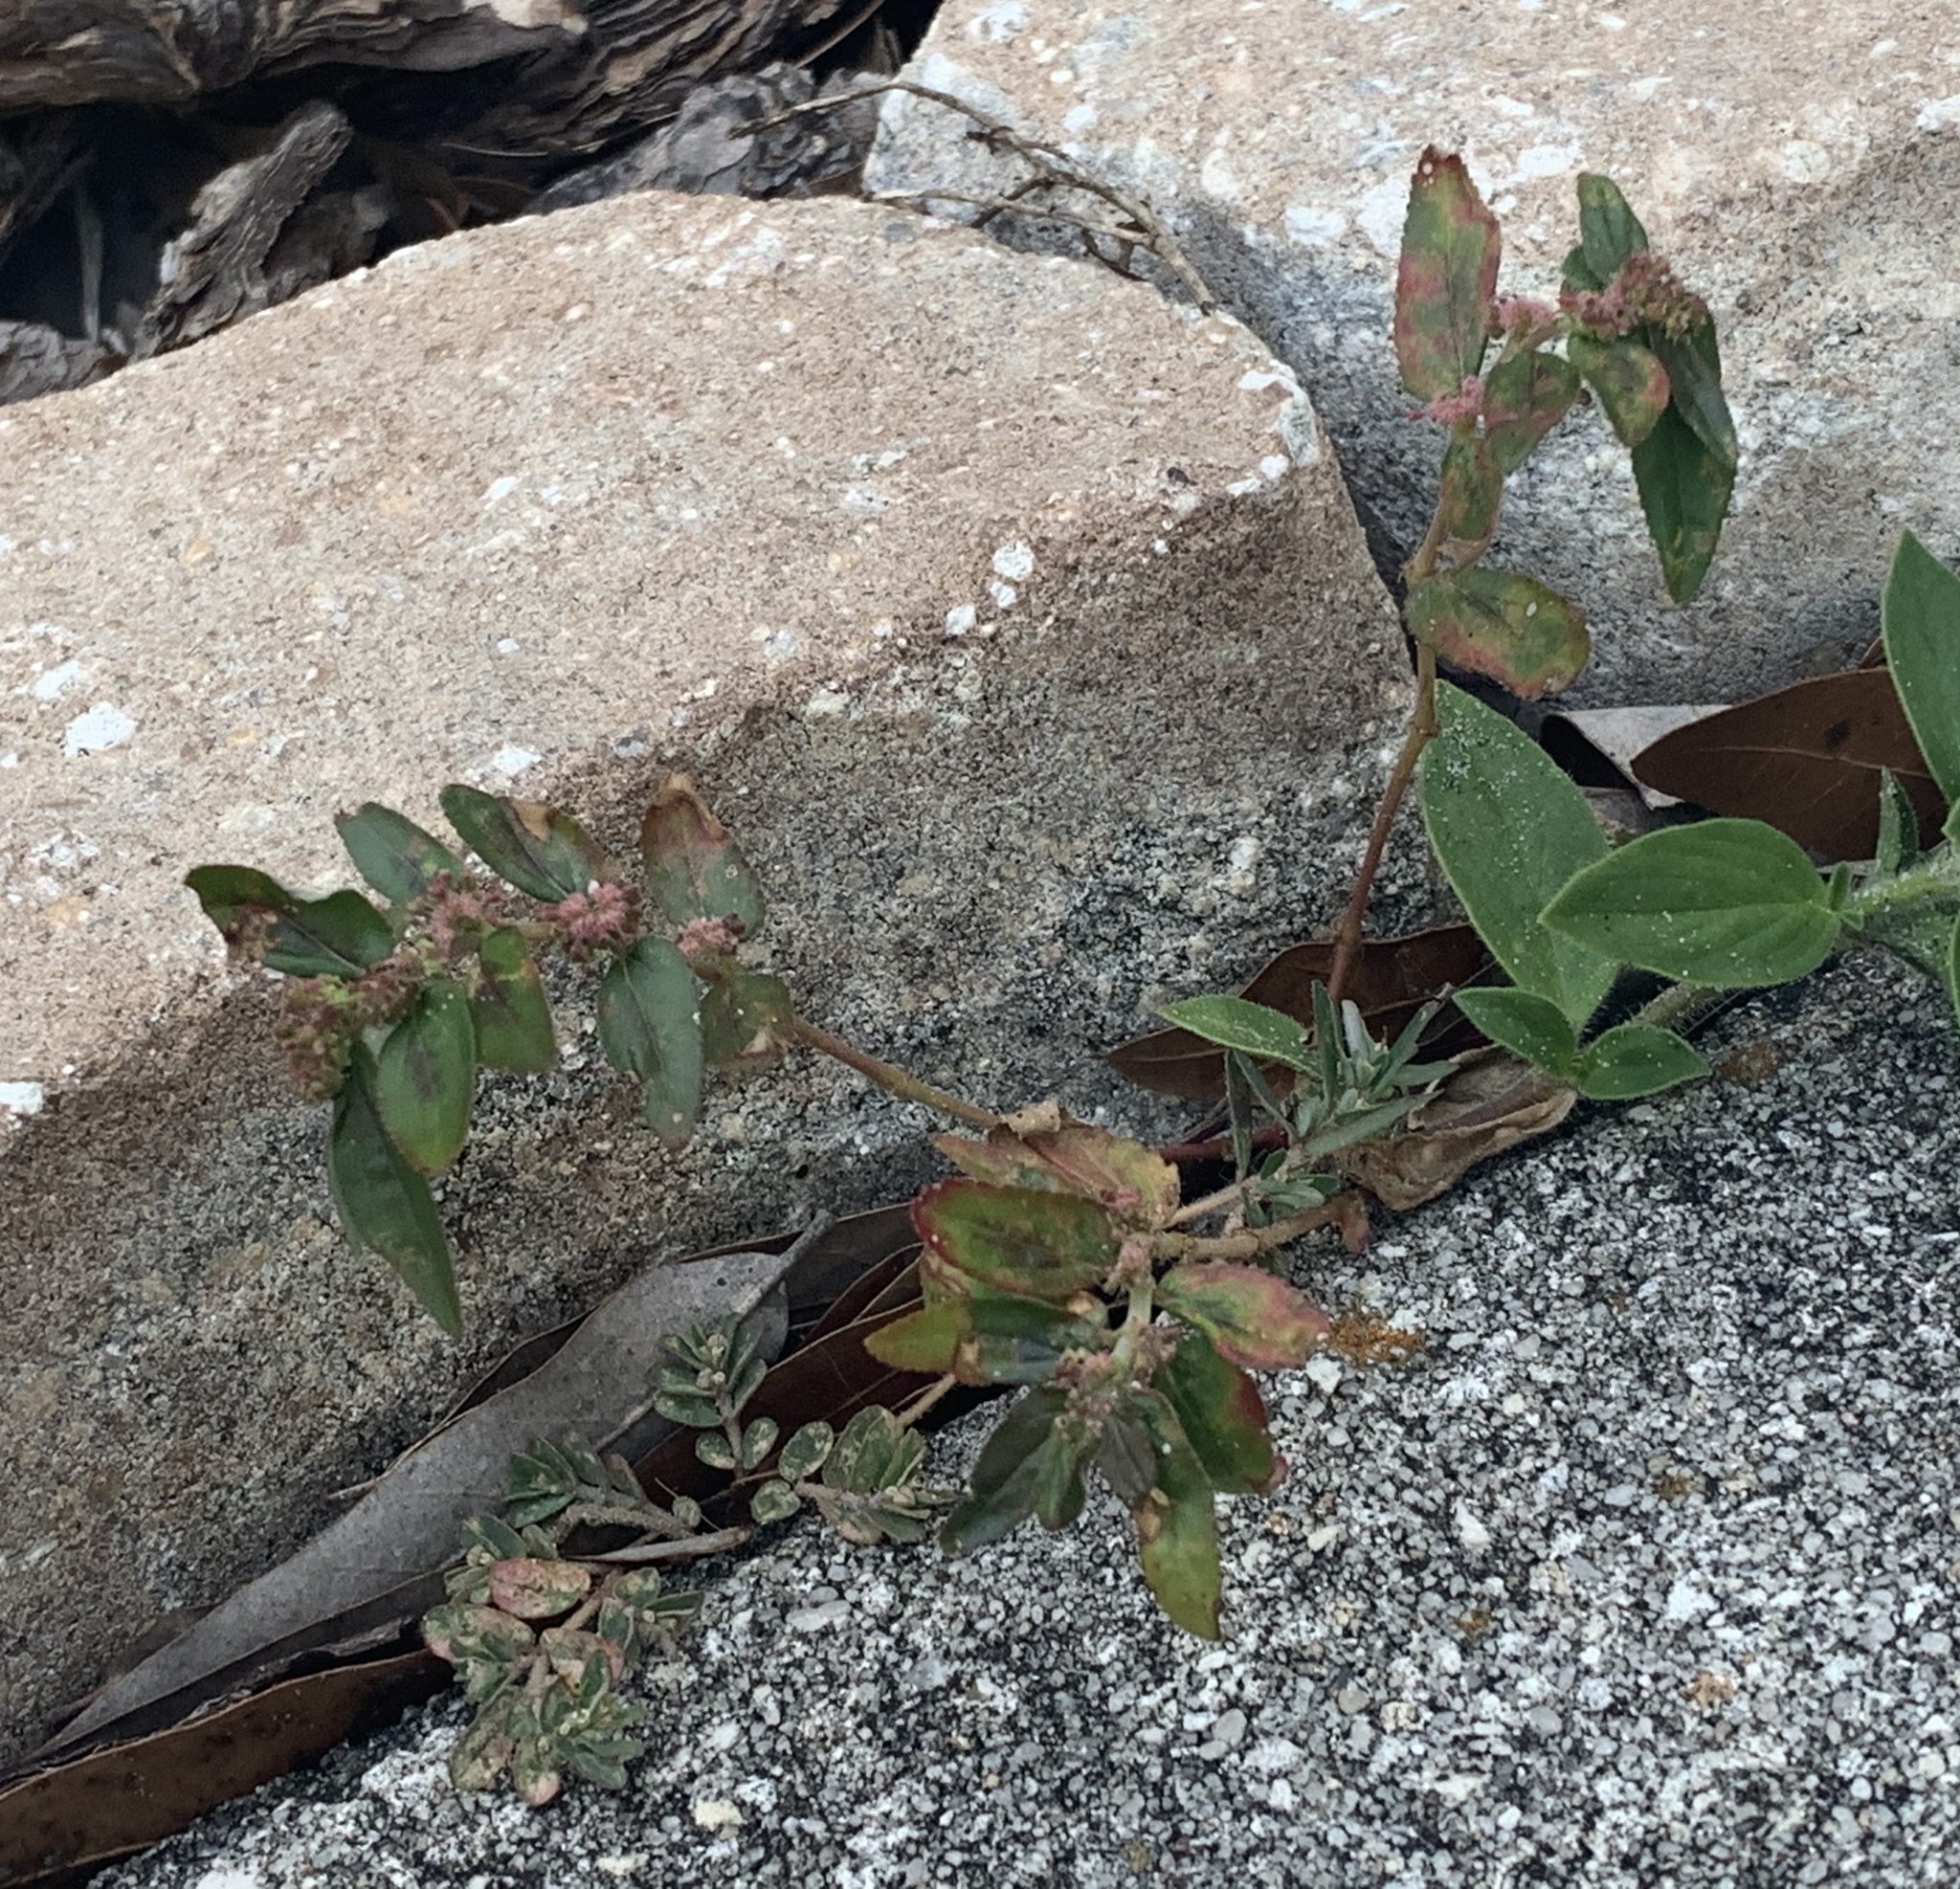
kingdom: Plantae
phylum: Tracheophyta
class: Magnoliopsida
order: Malpighiales
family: Euphorbiaceae
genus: Euphorbia
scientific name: Euphorbia hirta
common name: Pillpod sandmat
